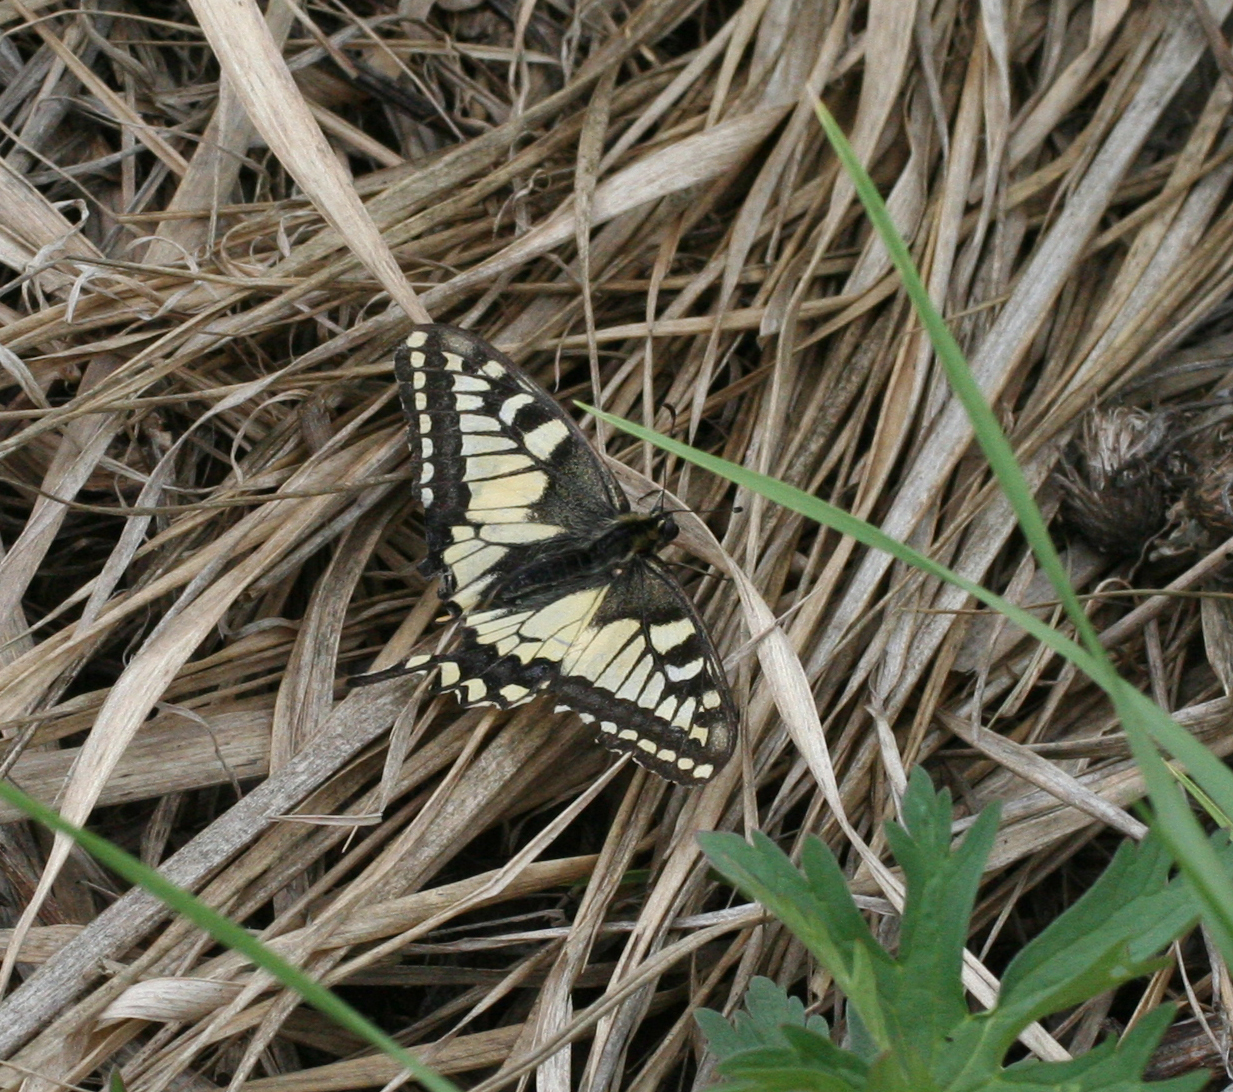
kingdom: Animalia
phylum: Arthropoda
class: Insecta
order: Lepidoptera
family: Papilionidae
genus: Papilio
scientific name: Papilio machaon
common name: Swallowtail
